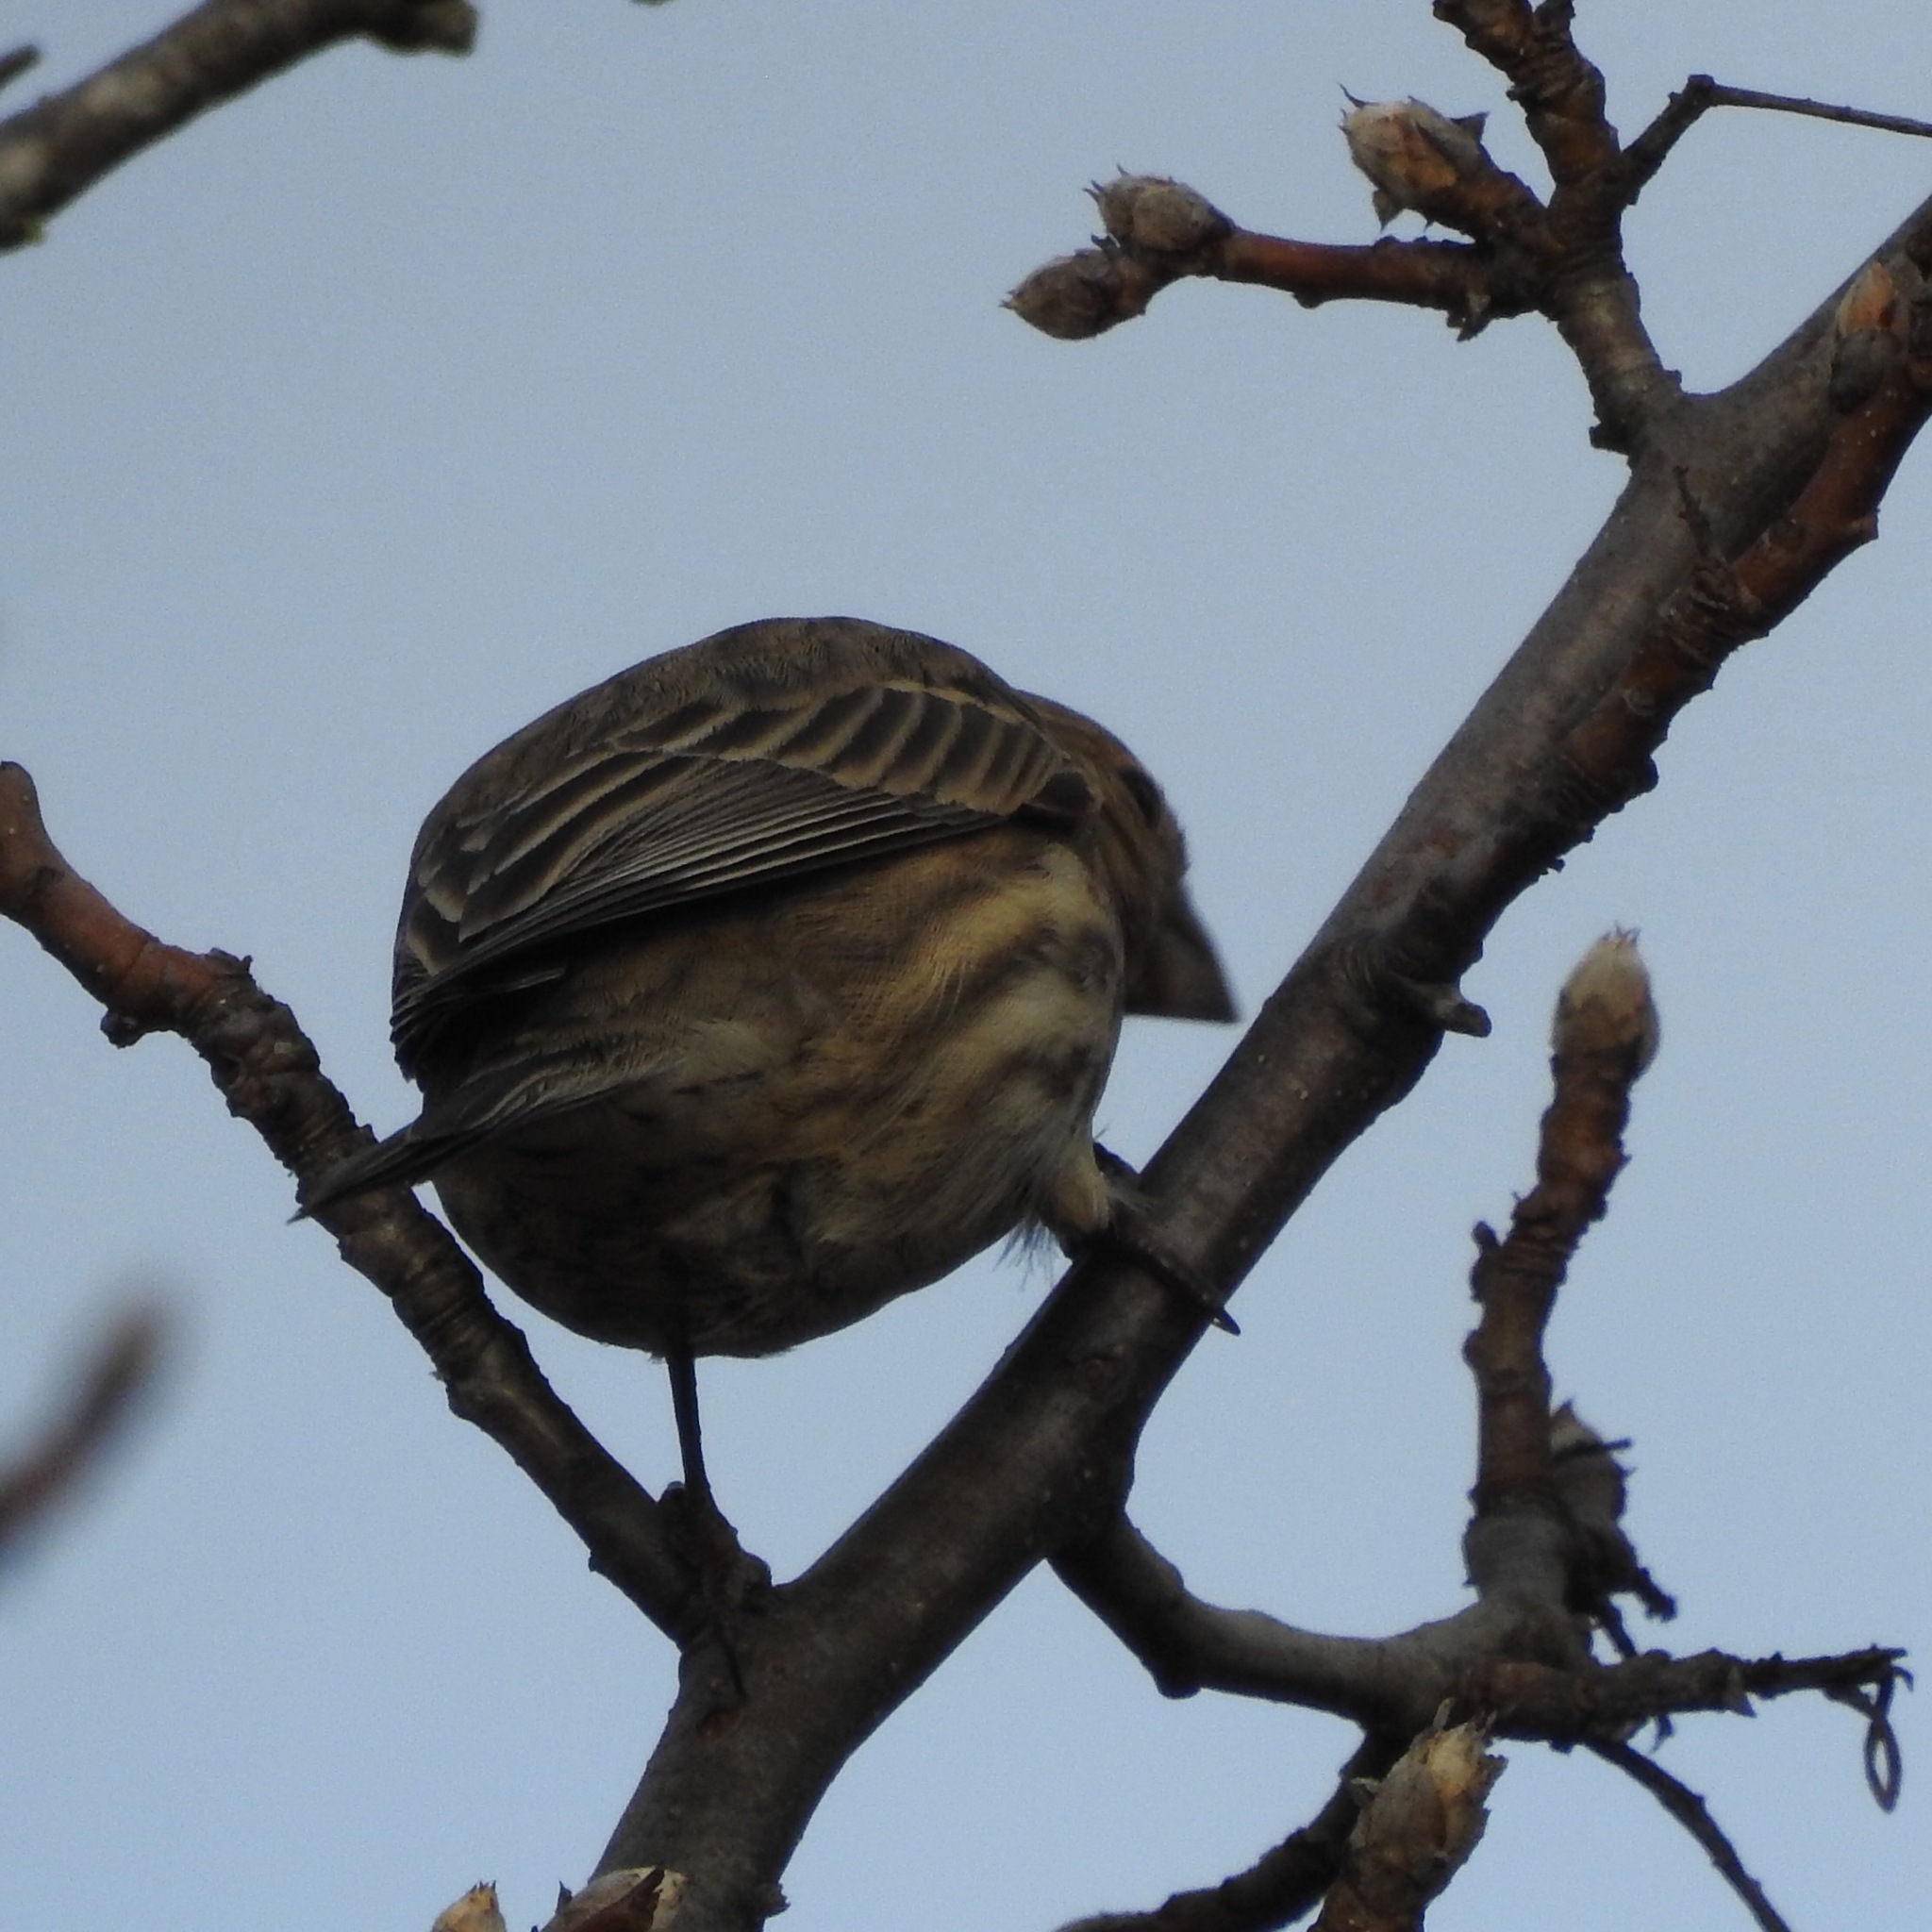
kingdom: Animalia
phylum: Chordata
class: Aves
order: Passeriformes
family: Fringillidae
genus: Haemorhous
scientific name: Haemorhous mexicanus
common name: House finch
